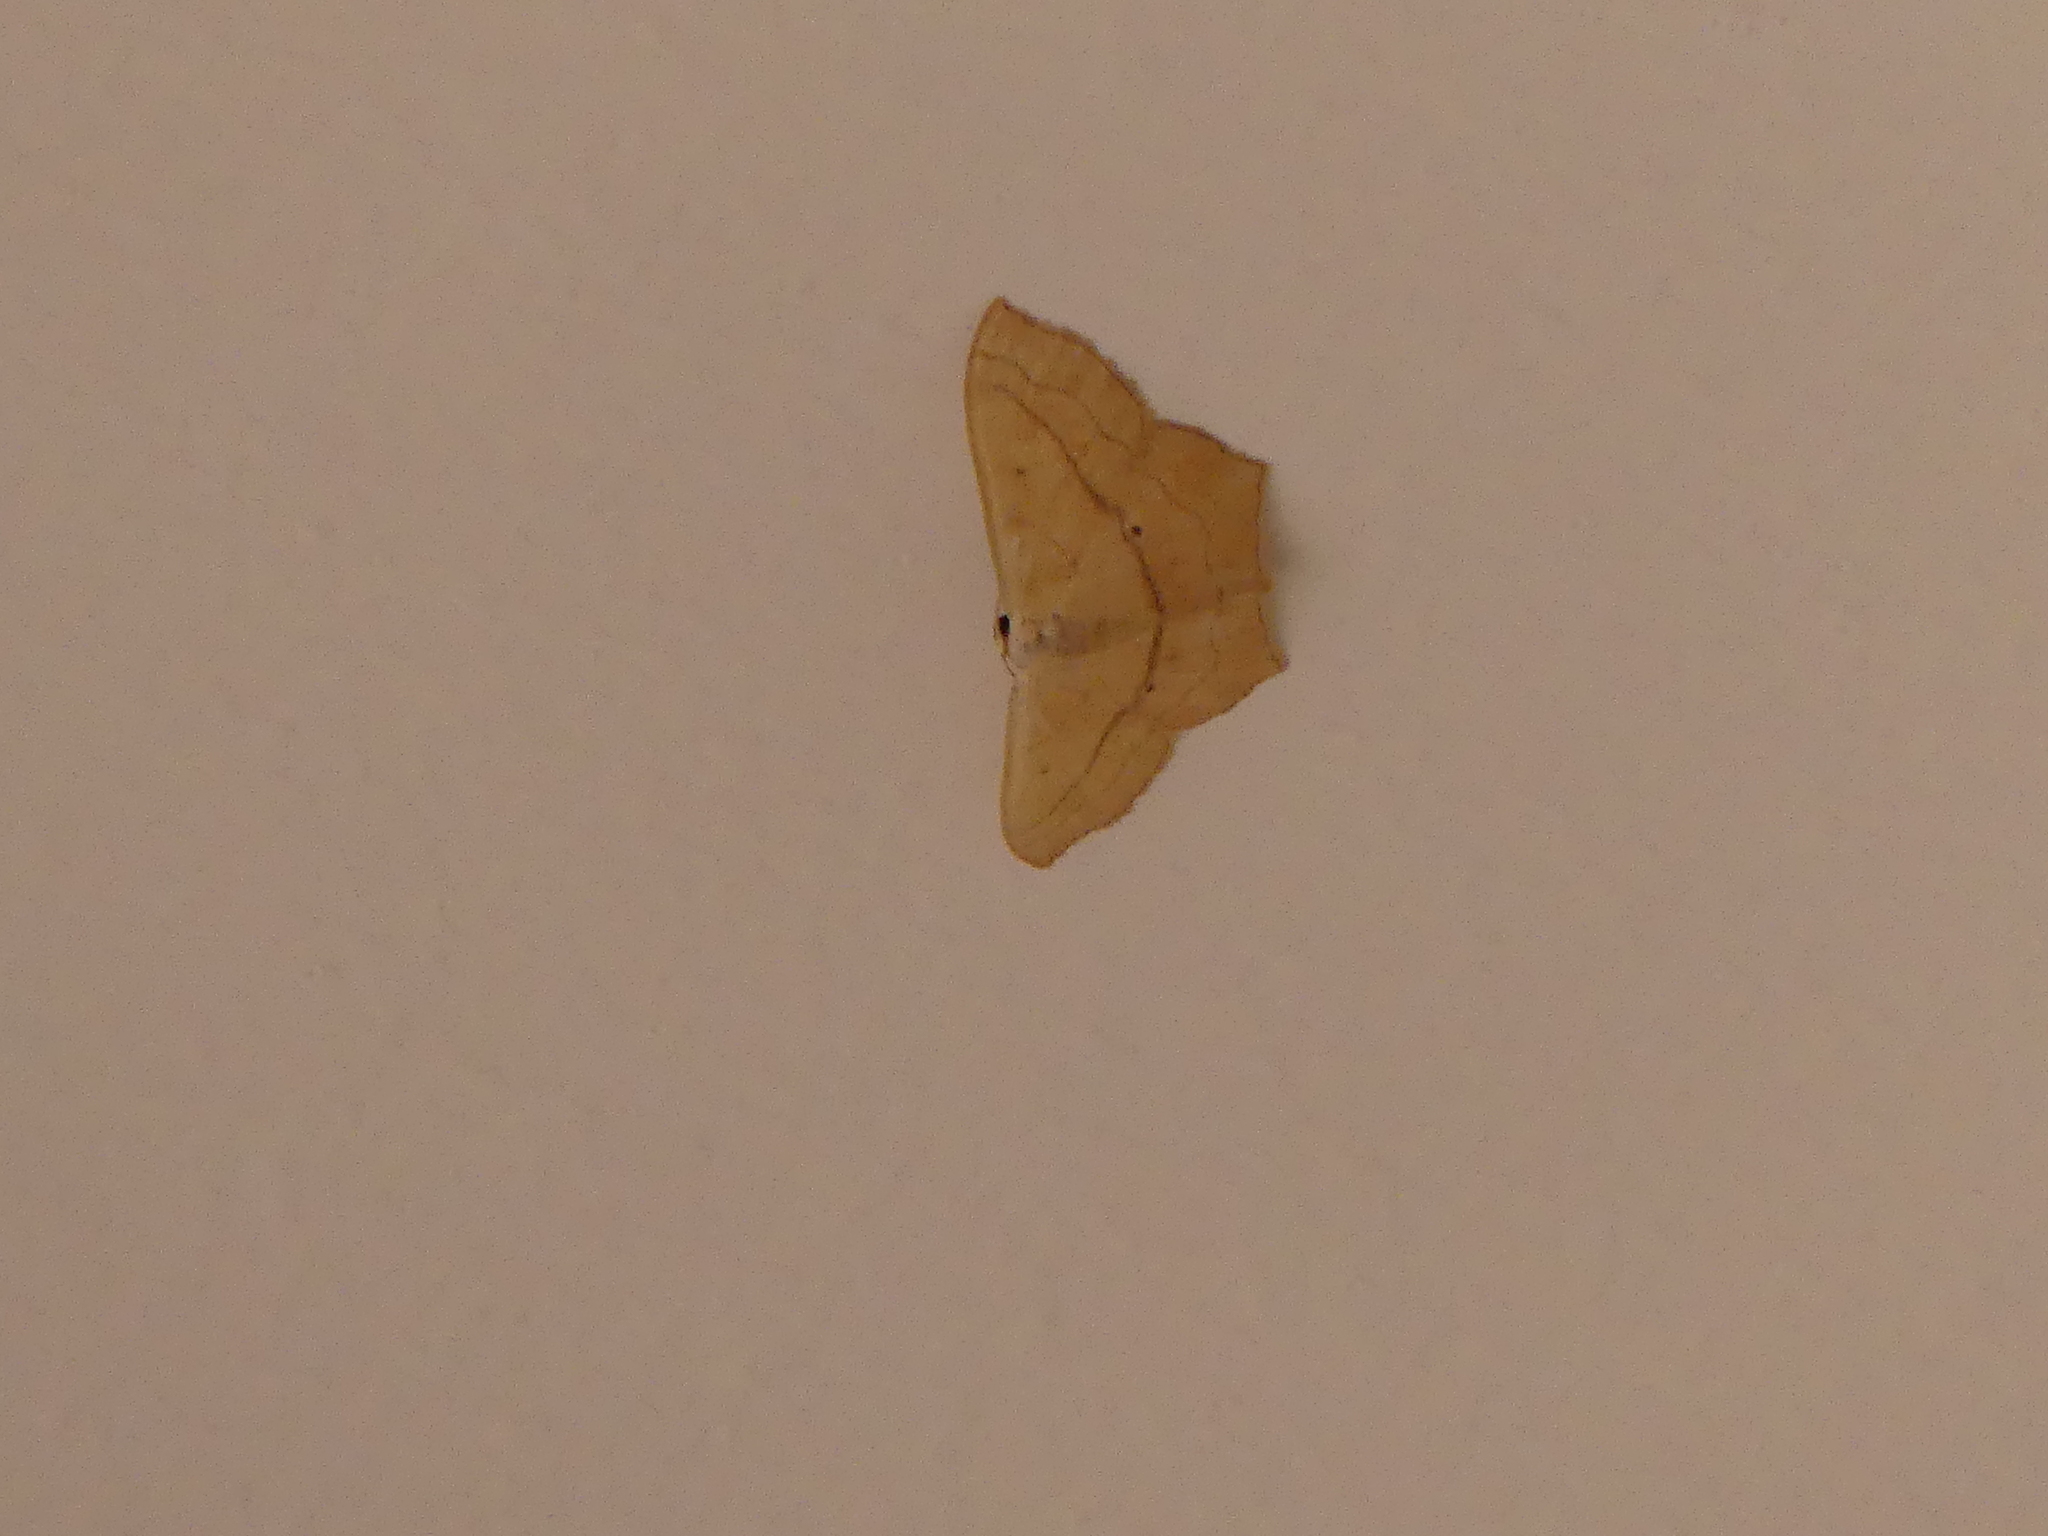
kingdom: Animalia
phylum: Arthropoda
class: Insecta
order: Lepidoptera
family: Geometridae
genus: Scopula
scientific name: Scopula imitaria
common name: Small blood-vein
